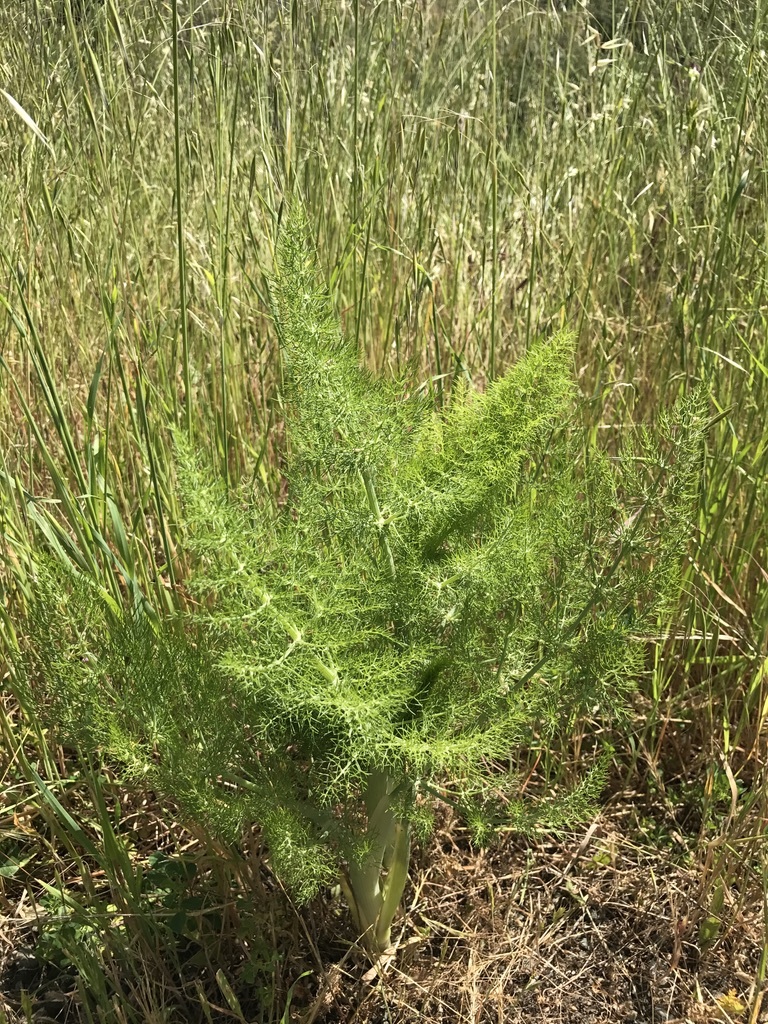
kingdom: Plantae
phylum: Tracheophyta
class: Magnoliopsida
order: Apiales
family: Apiaceae
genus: Foeniculum
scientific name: Foeniculum vulgare
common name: Fennel
